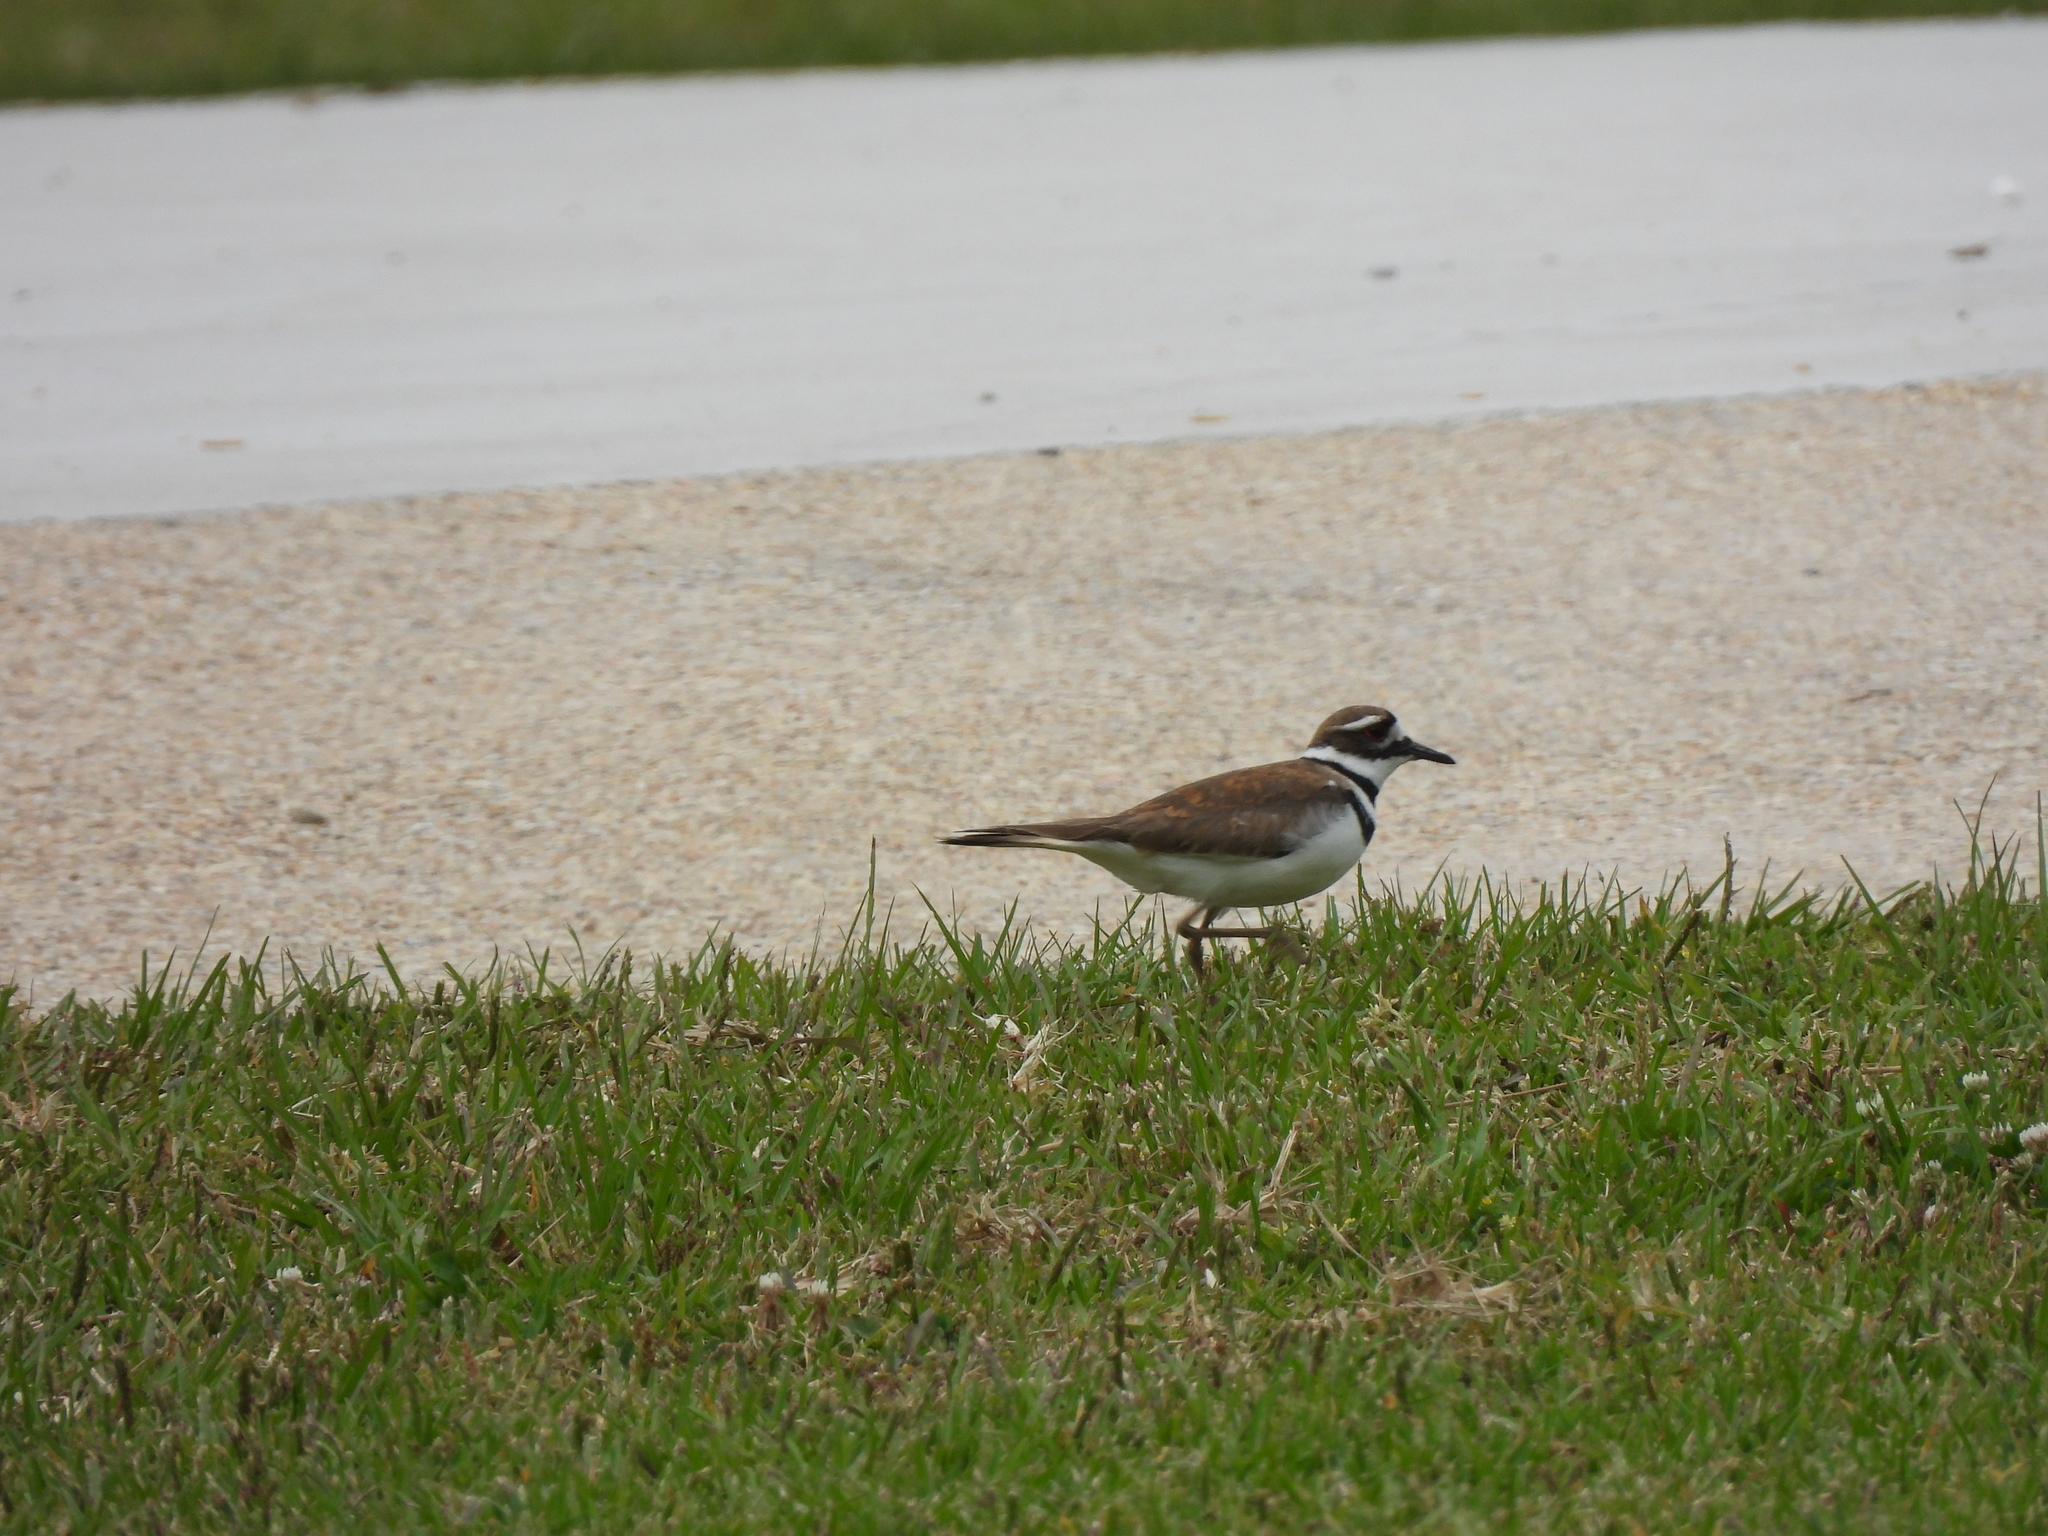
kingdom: Animalia
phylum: Chordata
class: Aves
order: Charadriiformes
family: Charadriidae
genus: Charadrius
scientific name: Charadrius vociferus
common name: Killdeer
